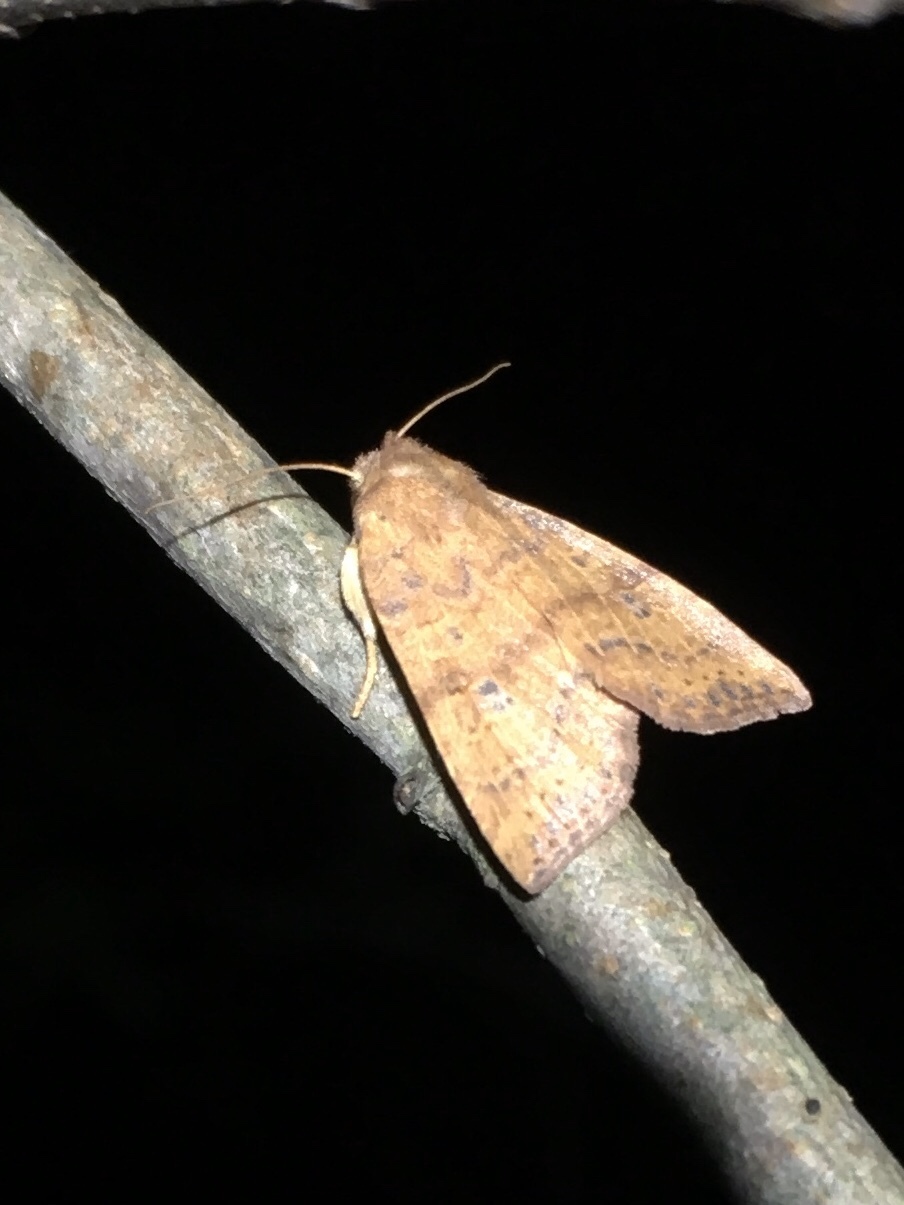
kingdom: Animalia
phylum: Arthropoda
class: Insecta
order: Lepidoptera
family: Noctuidae
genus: Agrochola
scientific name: Agrochola bicolorago
